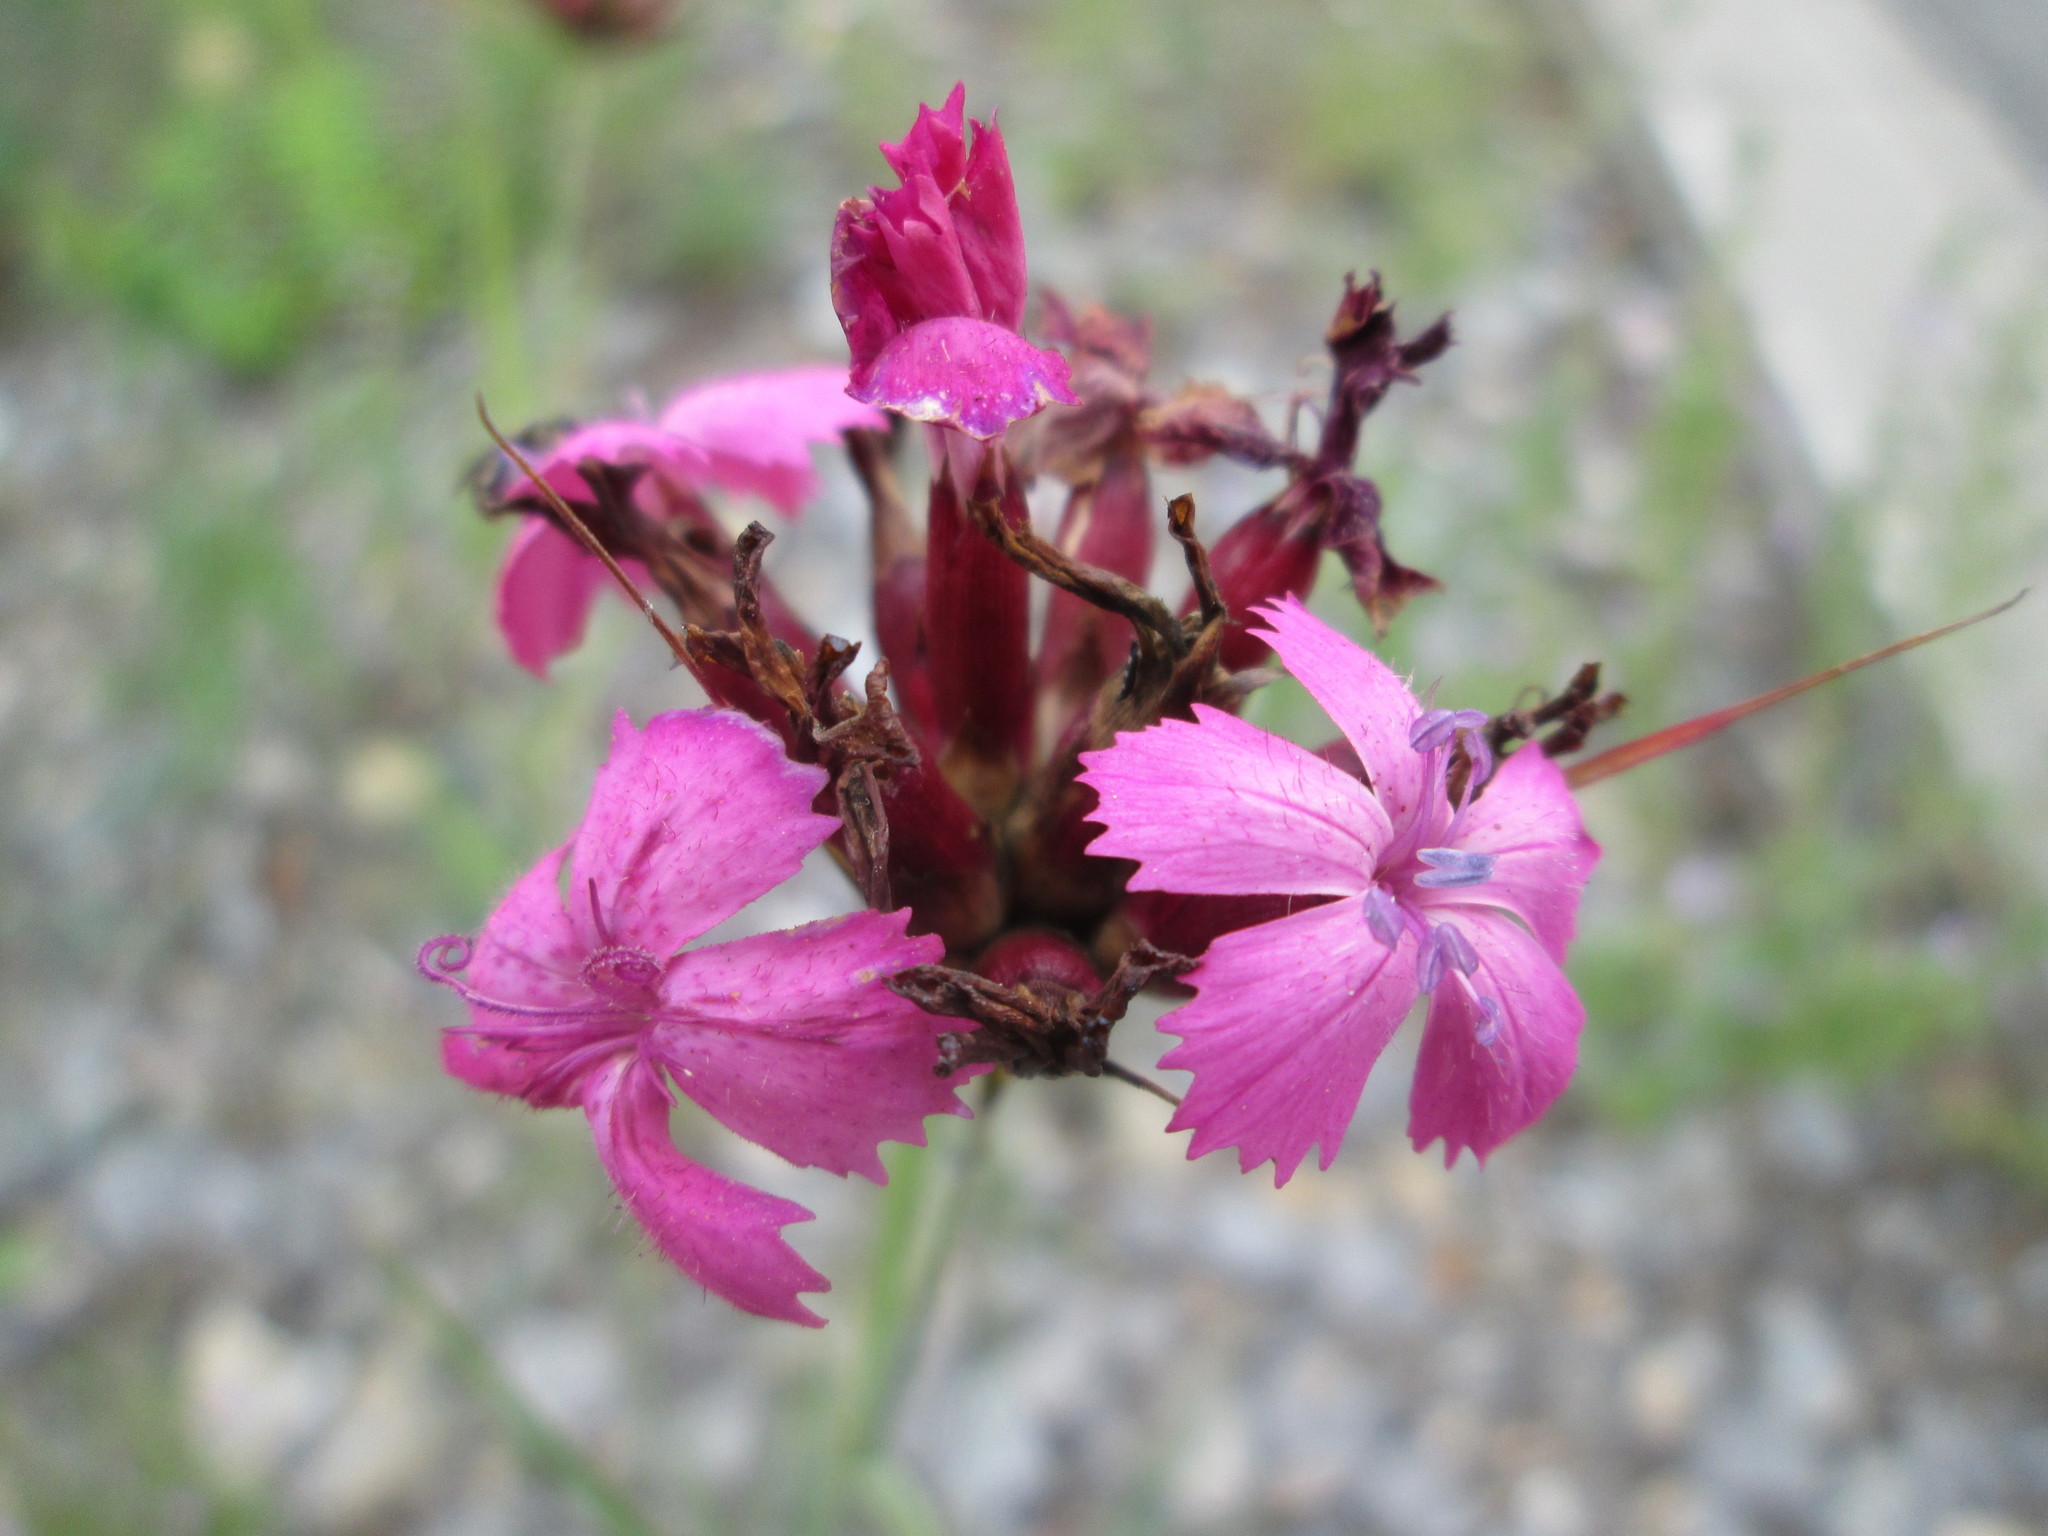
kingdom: Plantae
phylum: Tracheophyta
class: Magnoliopsida
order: Caryophyllales
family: Caryophyllaceae
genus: Dianthus
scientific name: Dianthus carthusianorum
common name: Carthusian pink
